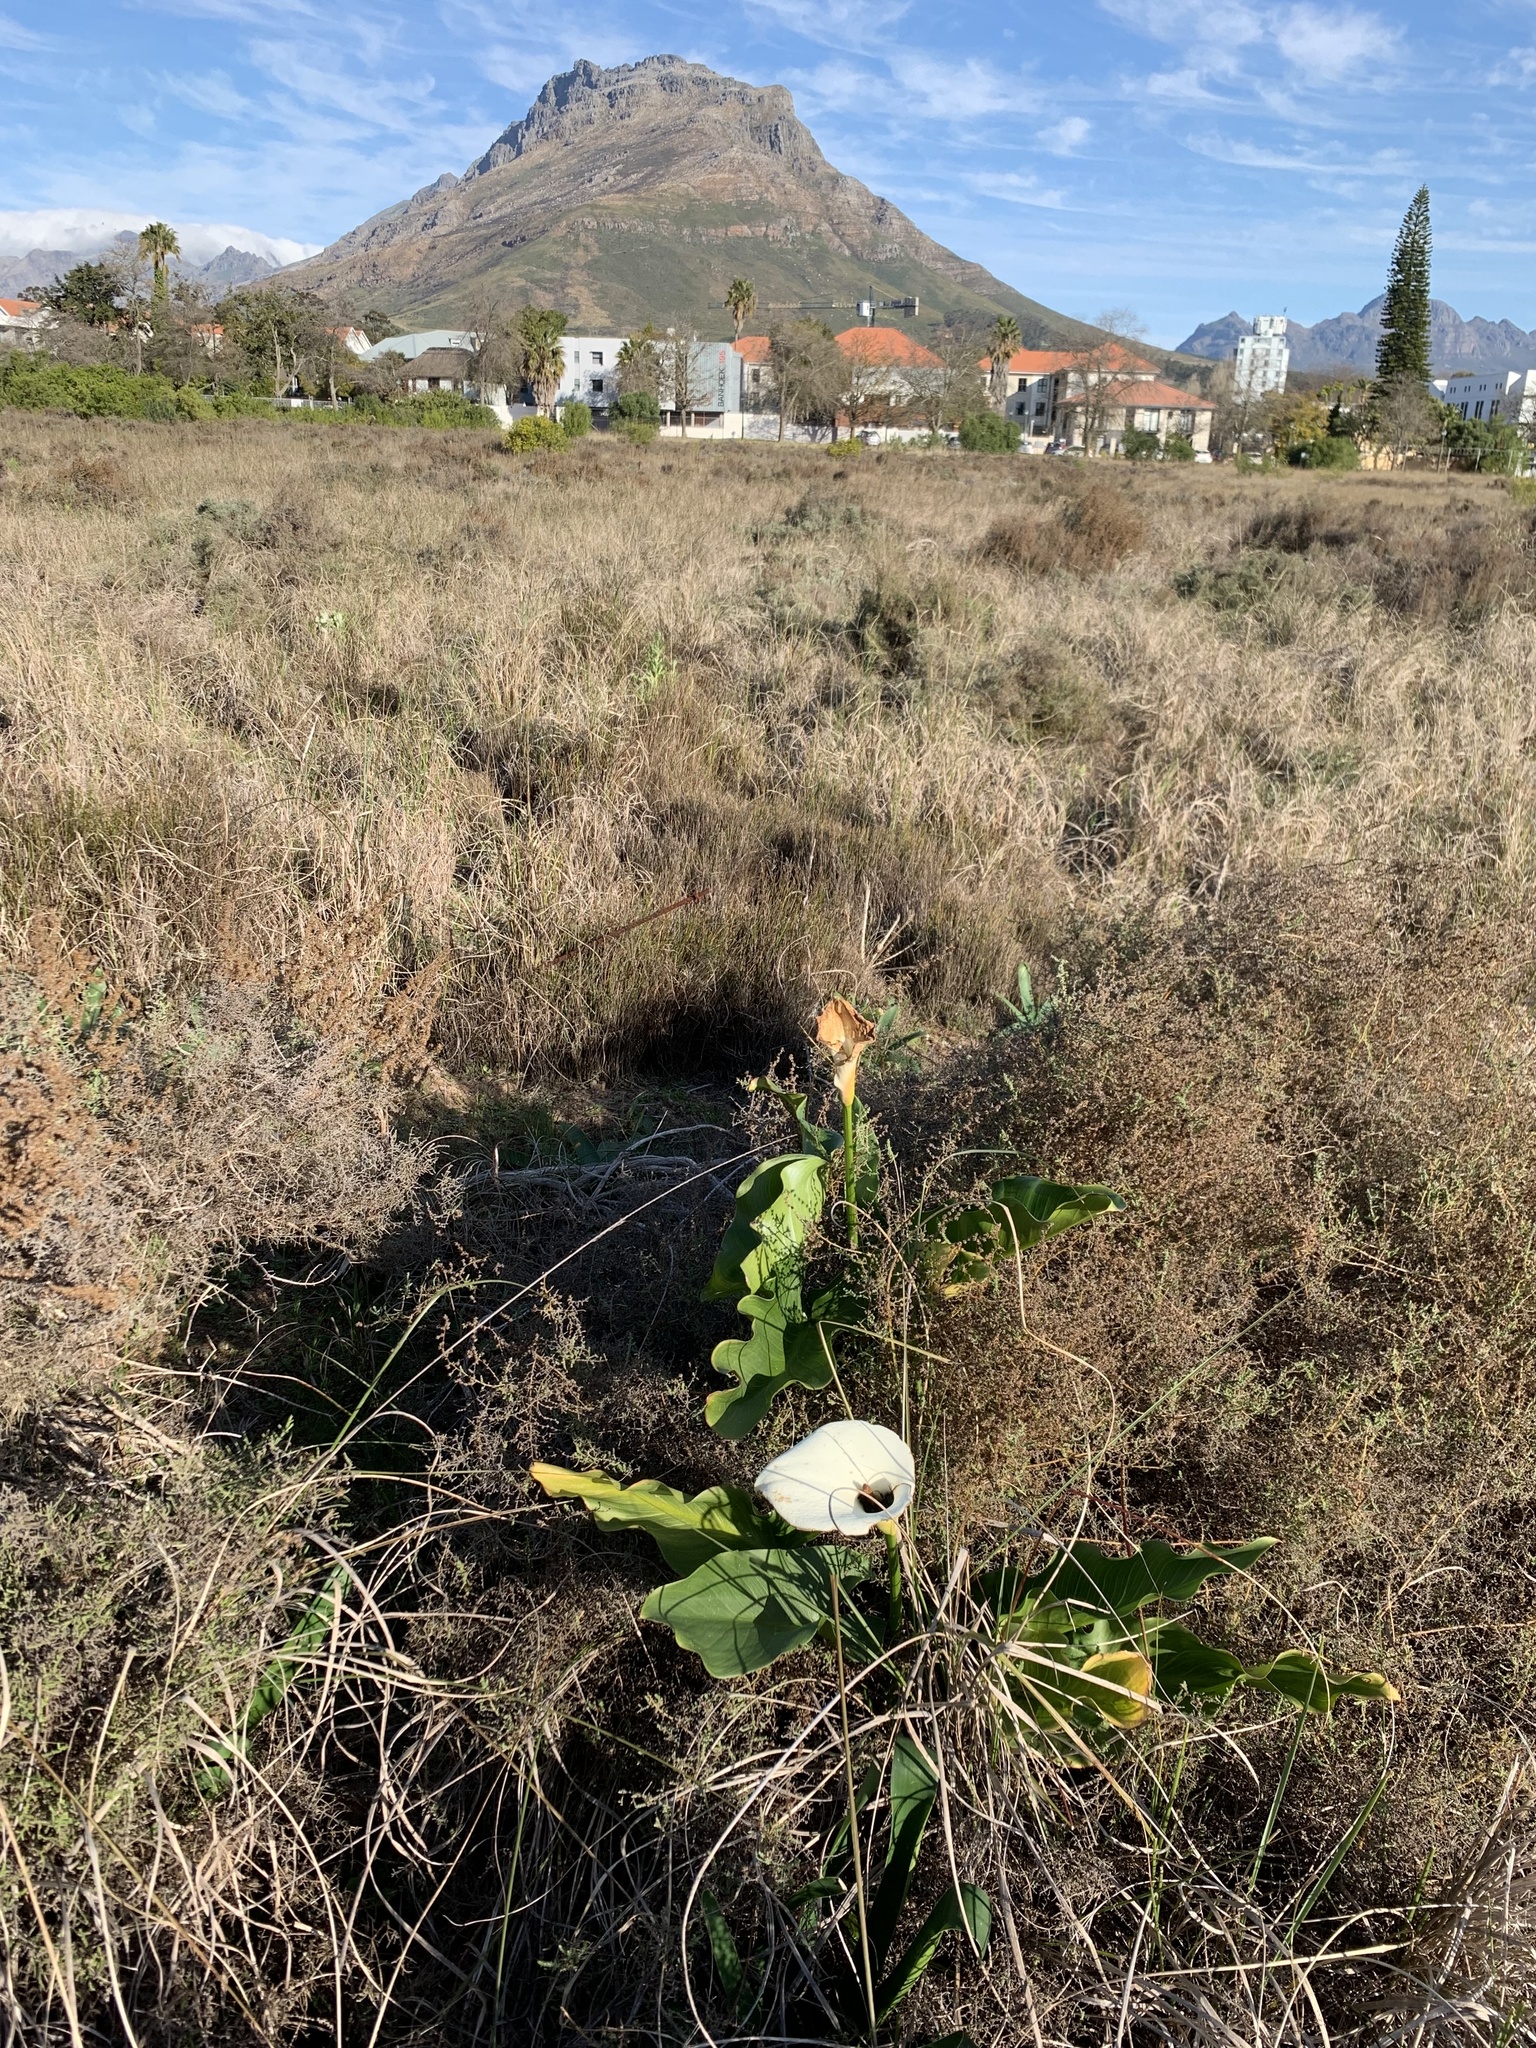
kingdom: Plantae
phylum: Tracheophyta
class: Liliopsida
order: Alismatales
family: Araceae
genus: Zantedeschia
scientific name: Zantedeschia aethiopica
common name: Altar-lily
